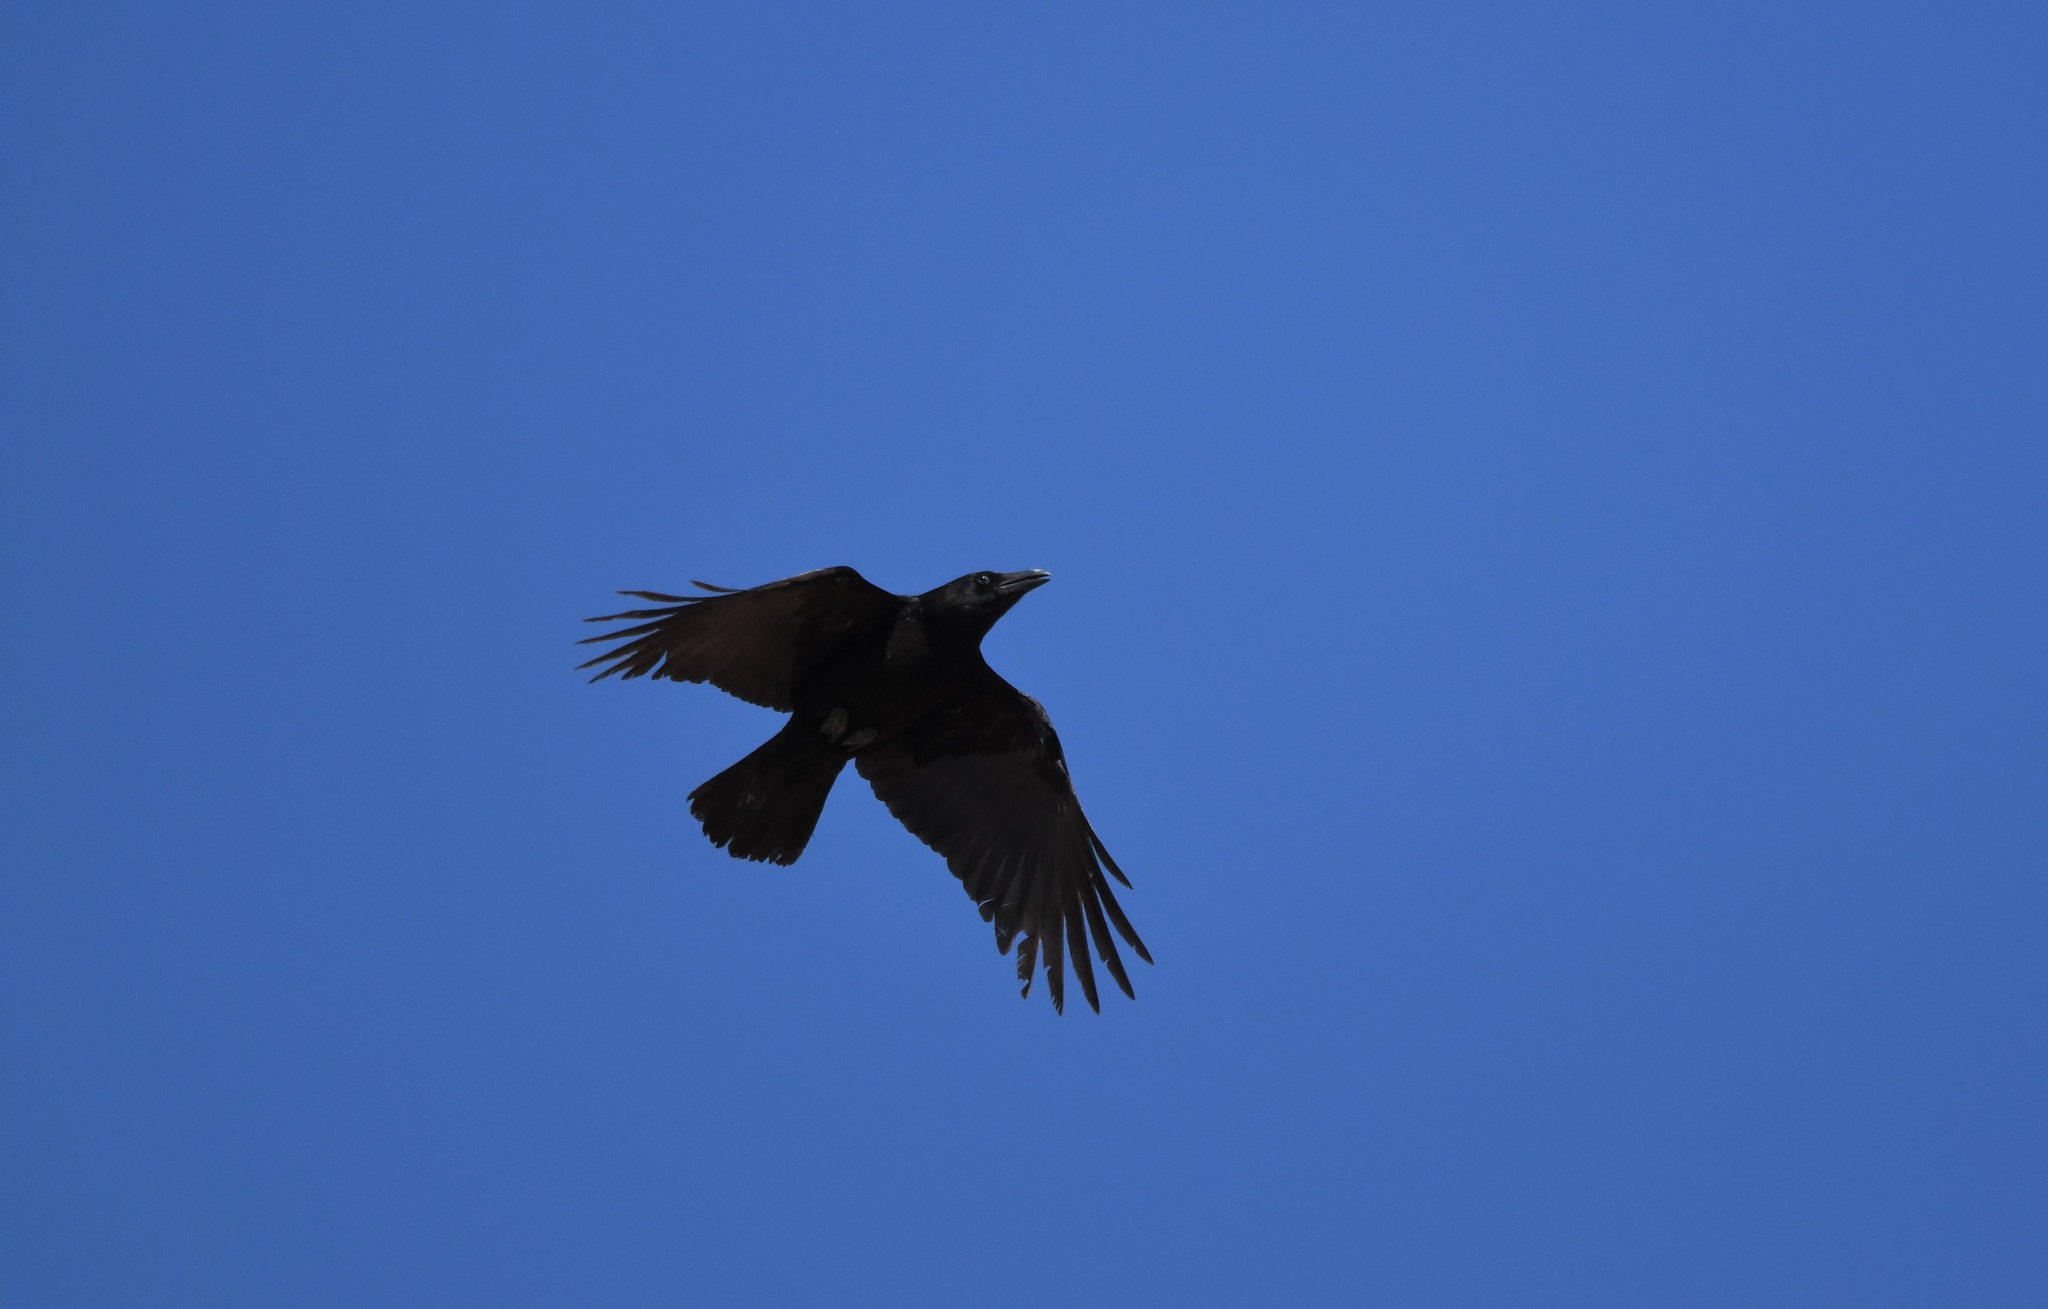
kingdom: Animalia
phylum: Chordata
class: Aves
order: Passeriformes
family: Corvidae
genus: Corvus
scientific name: Corvus corone
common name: Carrion crow
